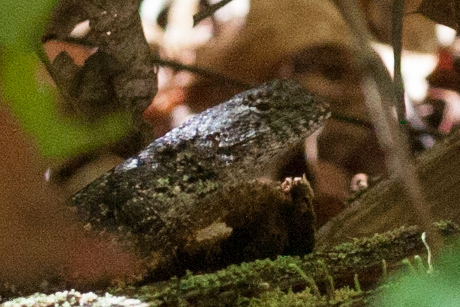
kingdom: Animalia
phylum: Chordata
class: Squamata
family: Phrynosomatidae
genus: Sceloporus
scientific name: Sceloporus undulatus
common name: Eastern fence lizard
